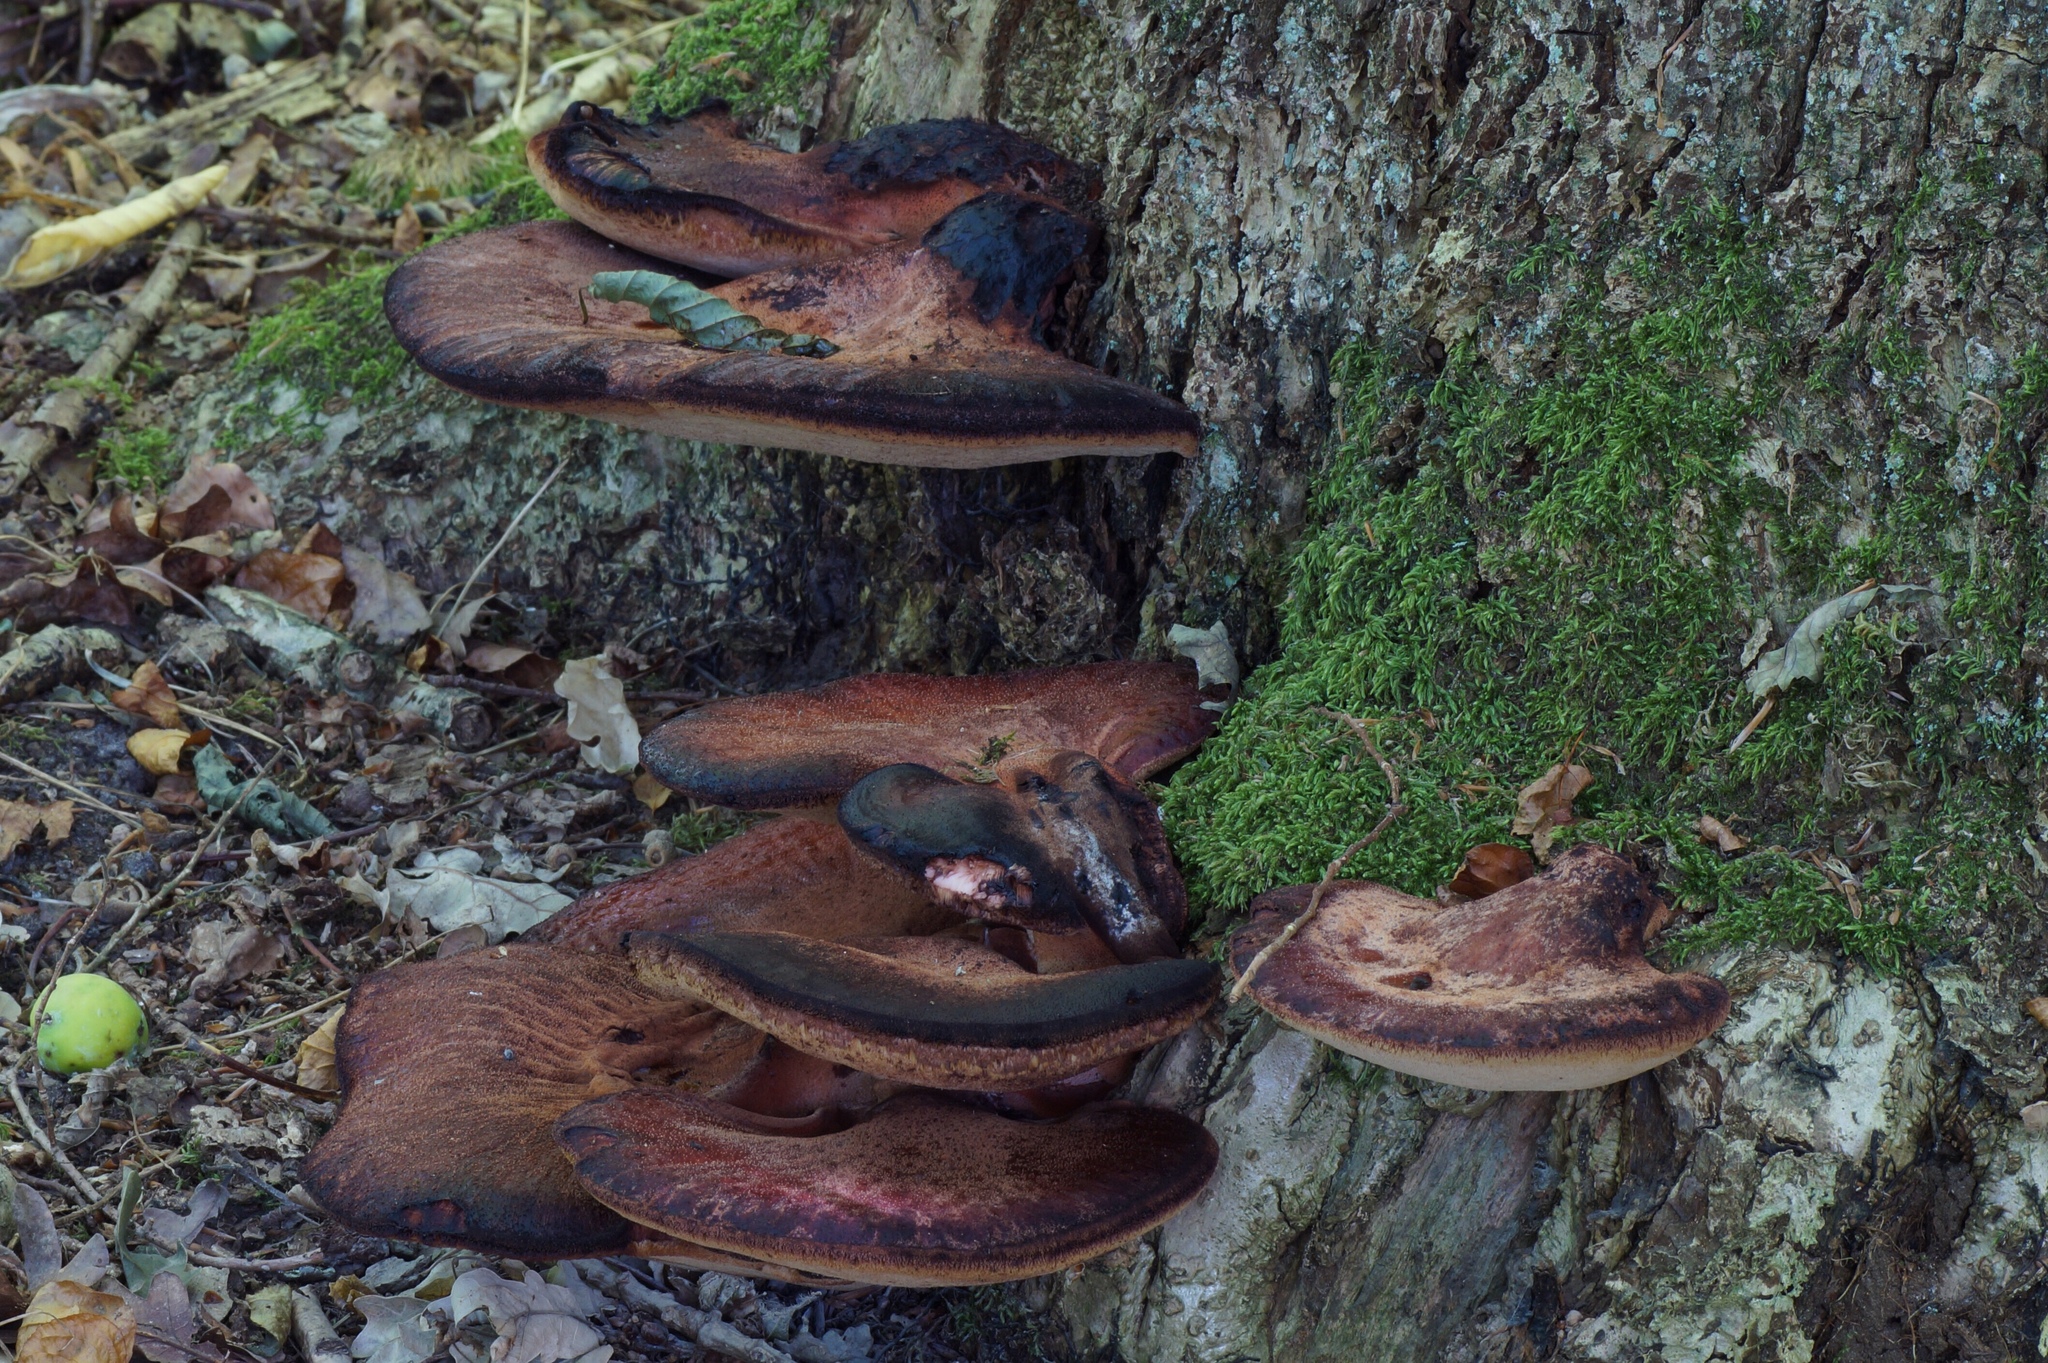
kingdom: Fungi
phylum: Basidiomycota
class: Agaricomycetes
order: Agaricales
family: Fistulinaceae
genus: Fistulina
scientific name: Fistulina hepatica
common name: Beef-steak fungus
